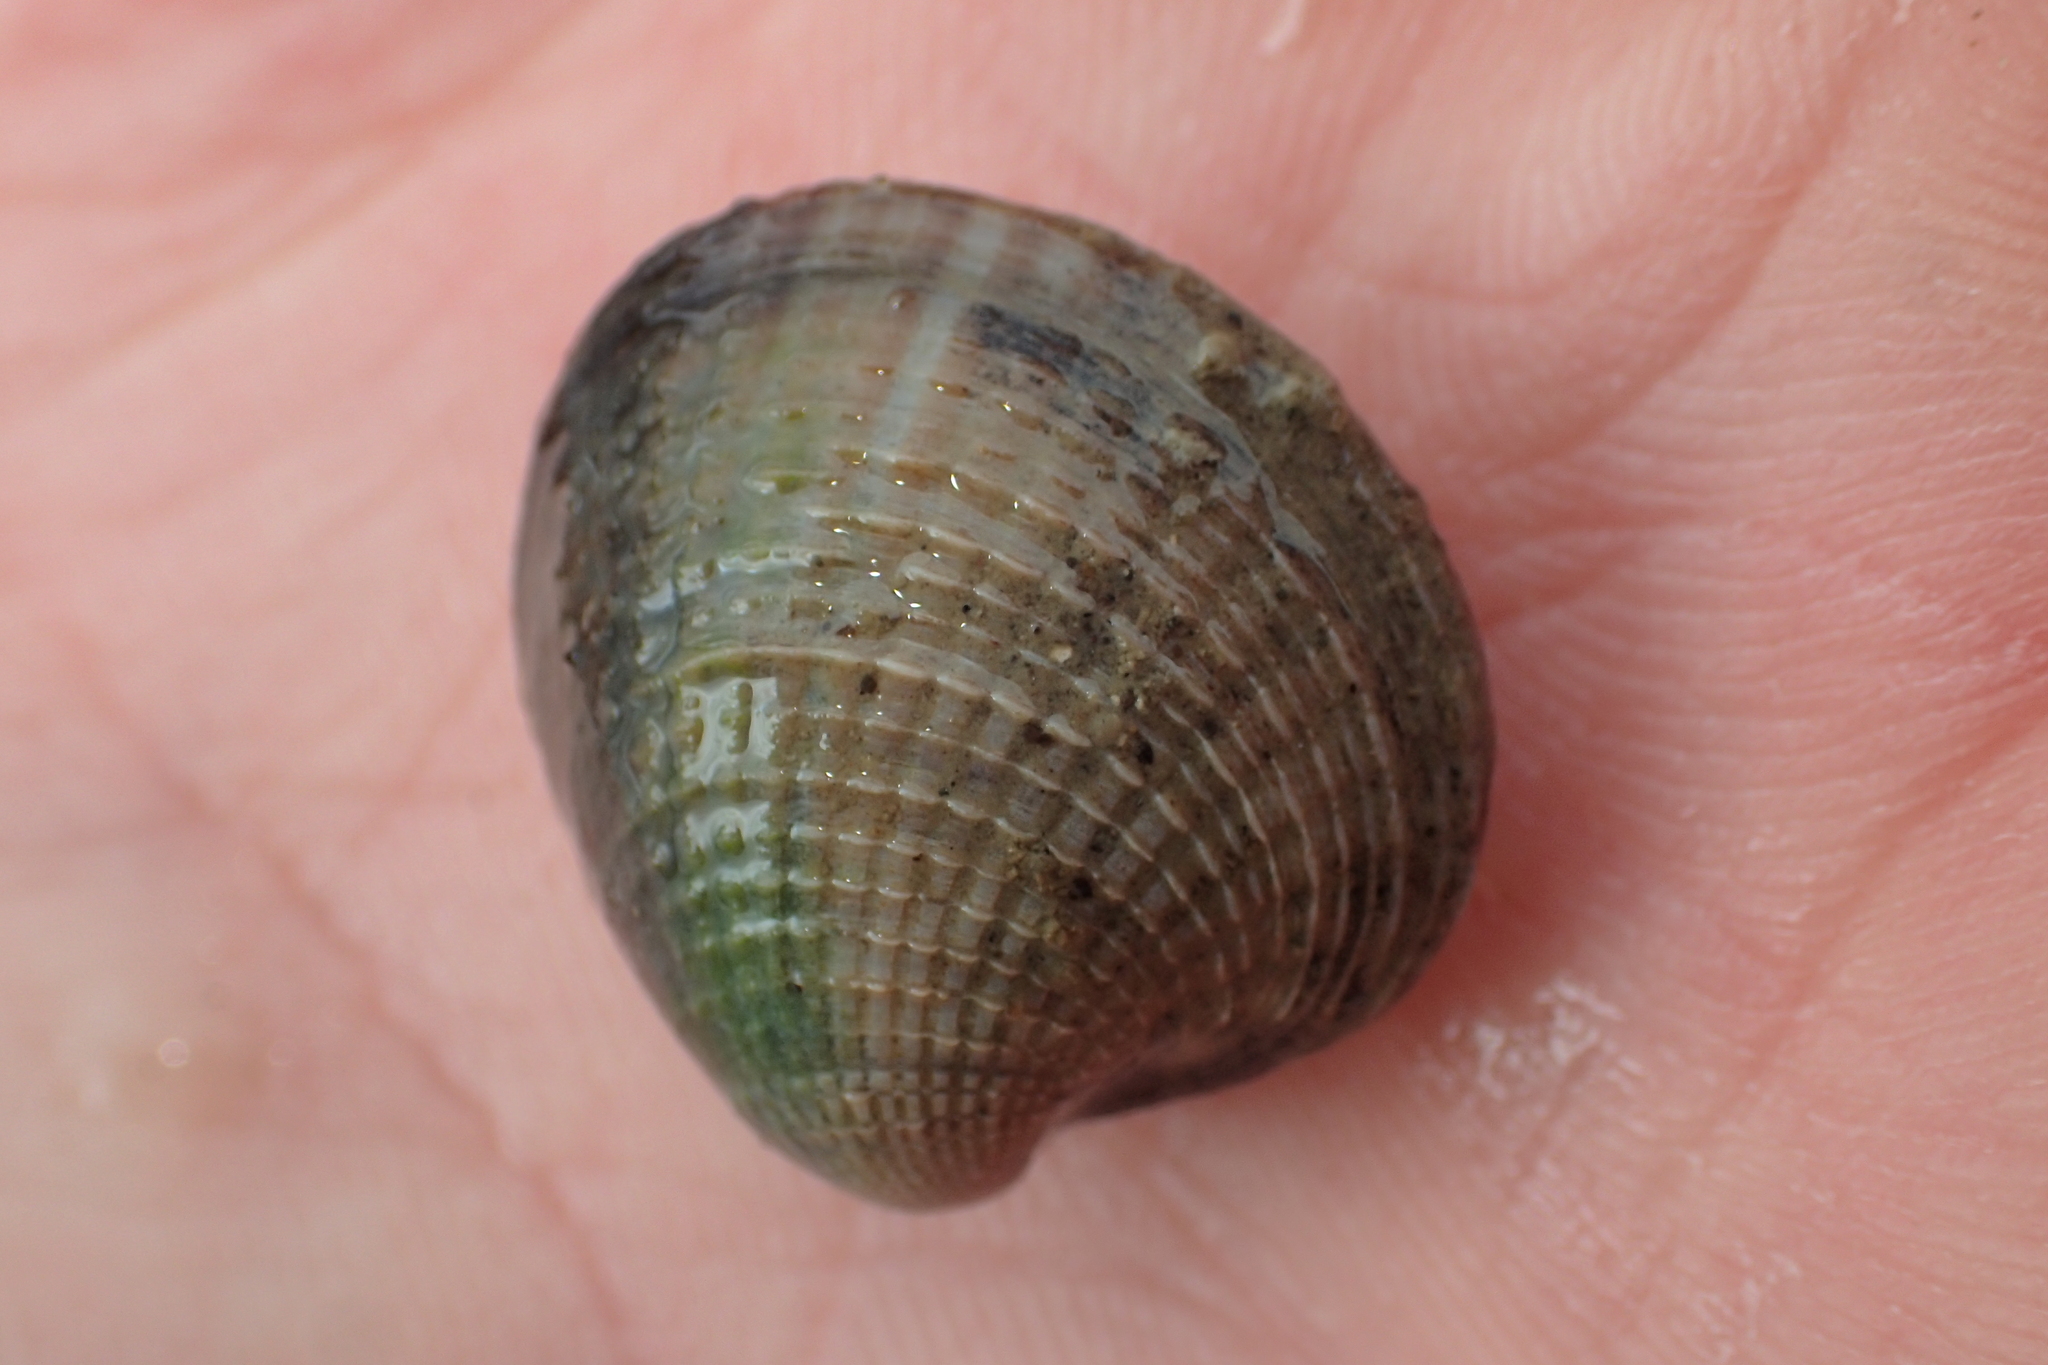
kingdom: Animalia
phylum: Mollusca
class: Bivalvia
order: Venerida
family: Veneridae
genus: Austrovenus
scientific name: Austrovenus stutchburyi
